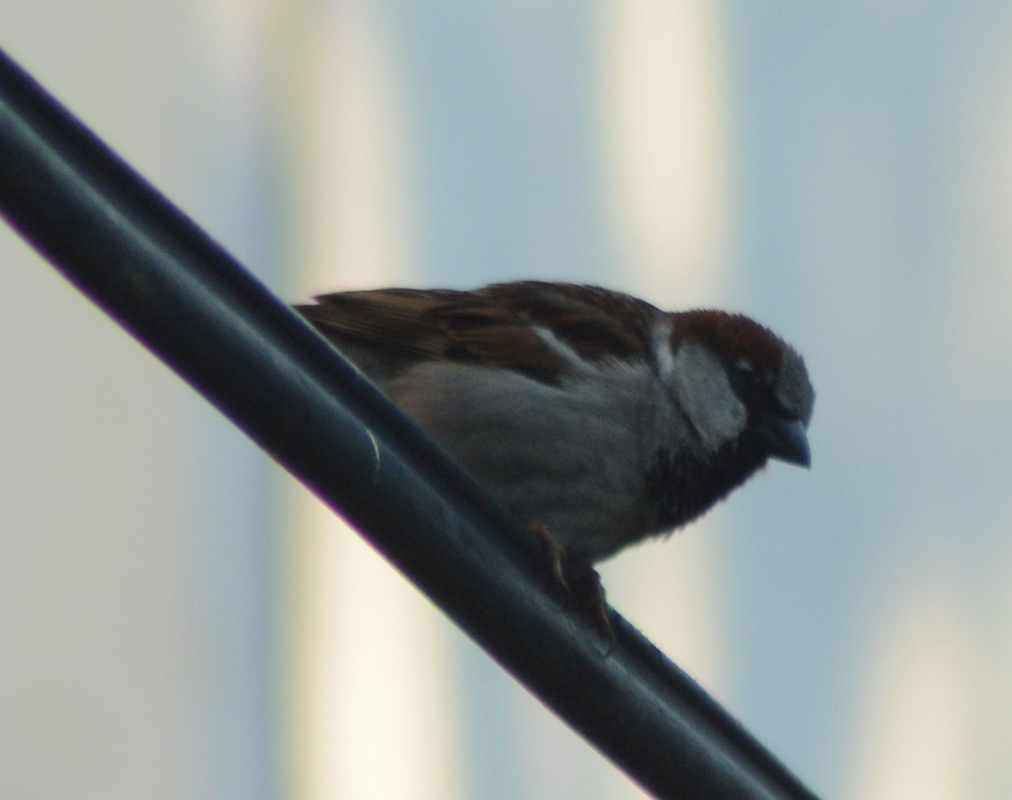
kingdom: Animalia
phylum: Chordata
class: Aves
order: Passeriformes
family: Passeridae
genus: Passer
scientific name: Passer domesticus
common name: House sparrow
